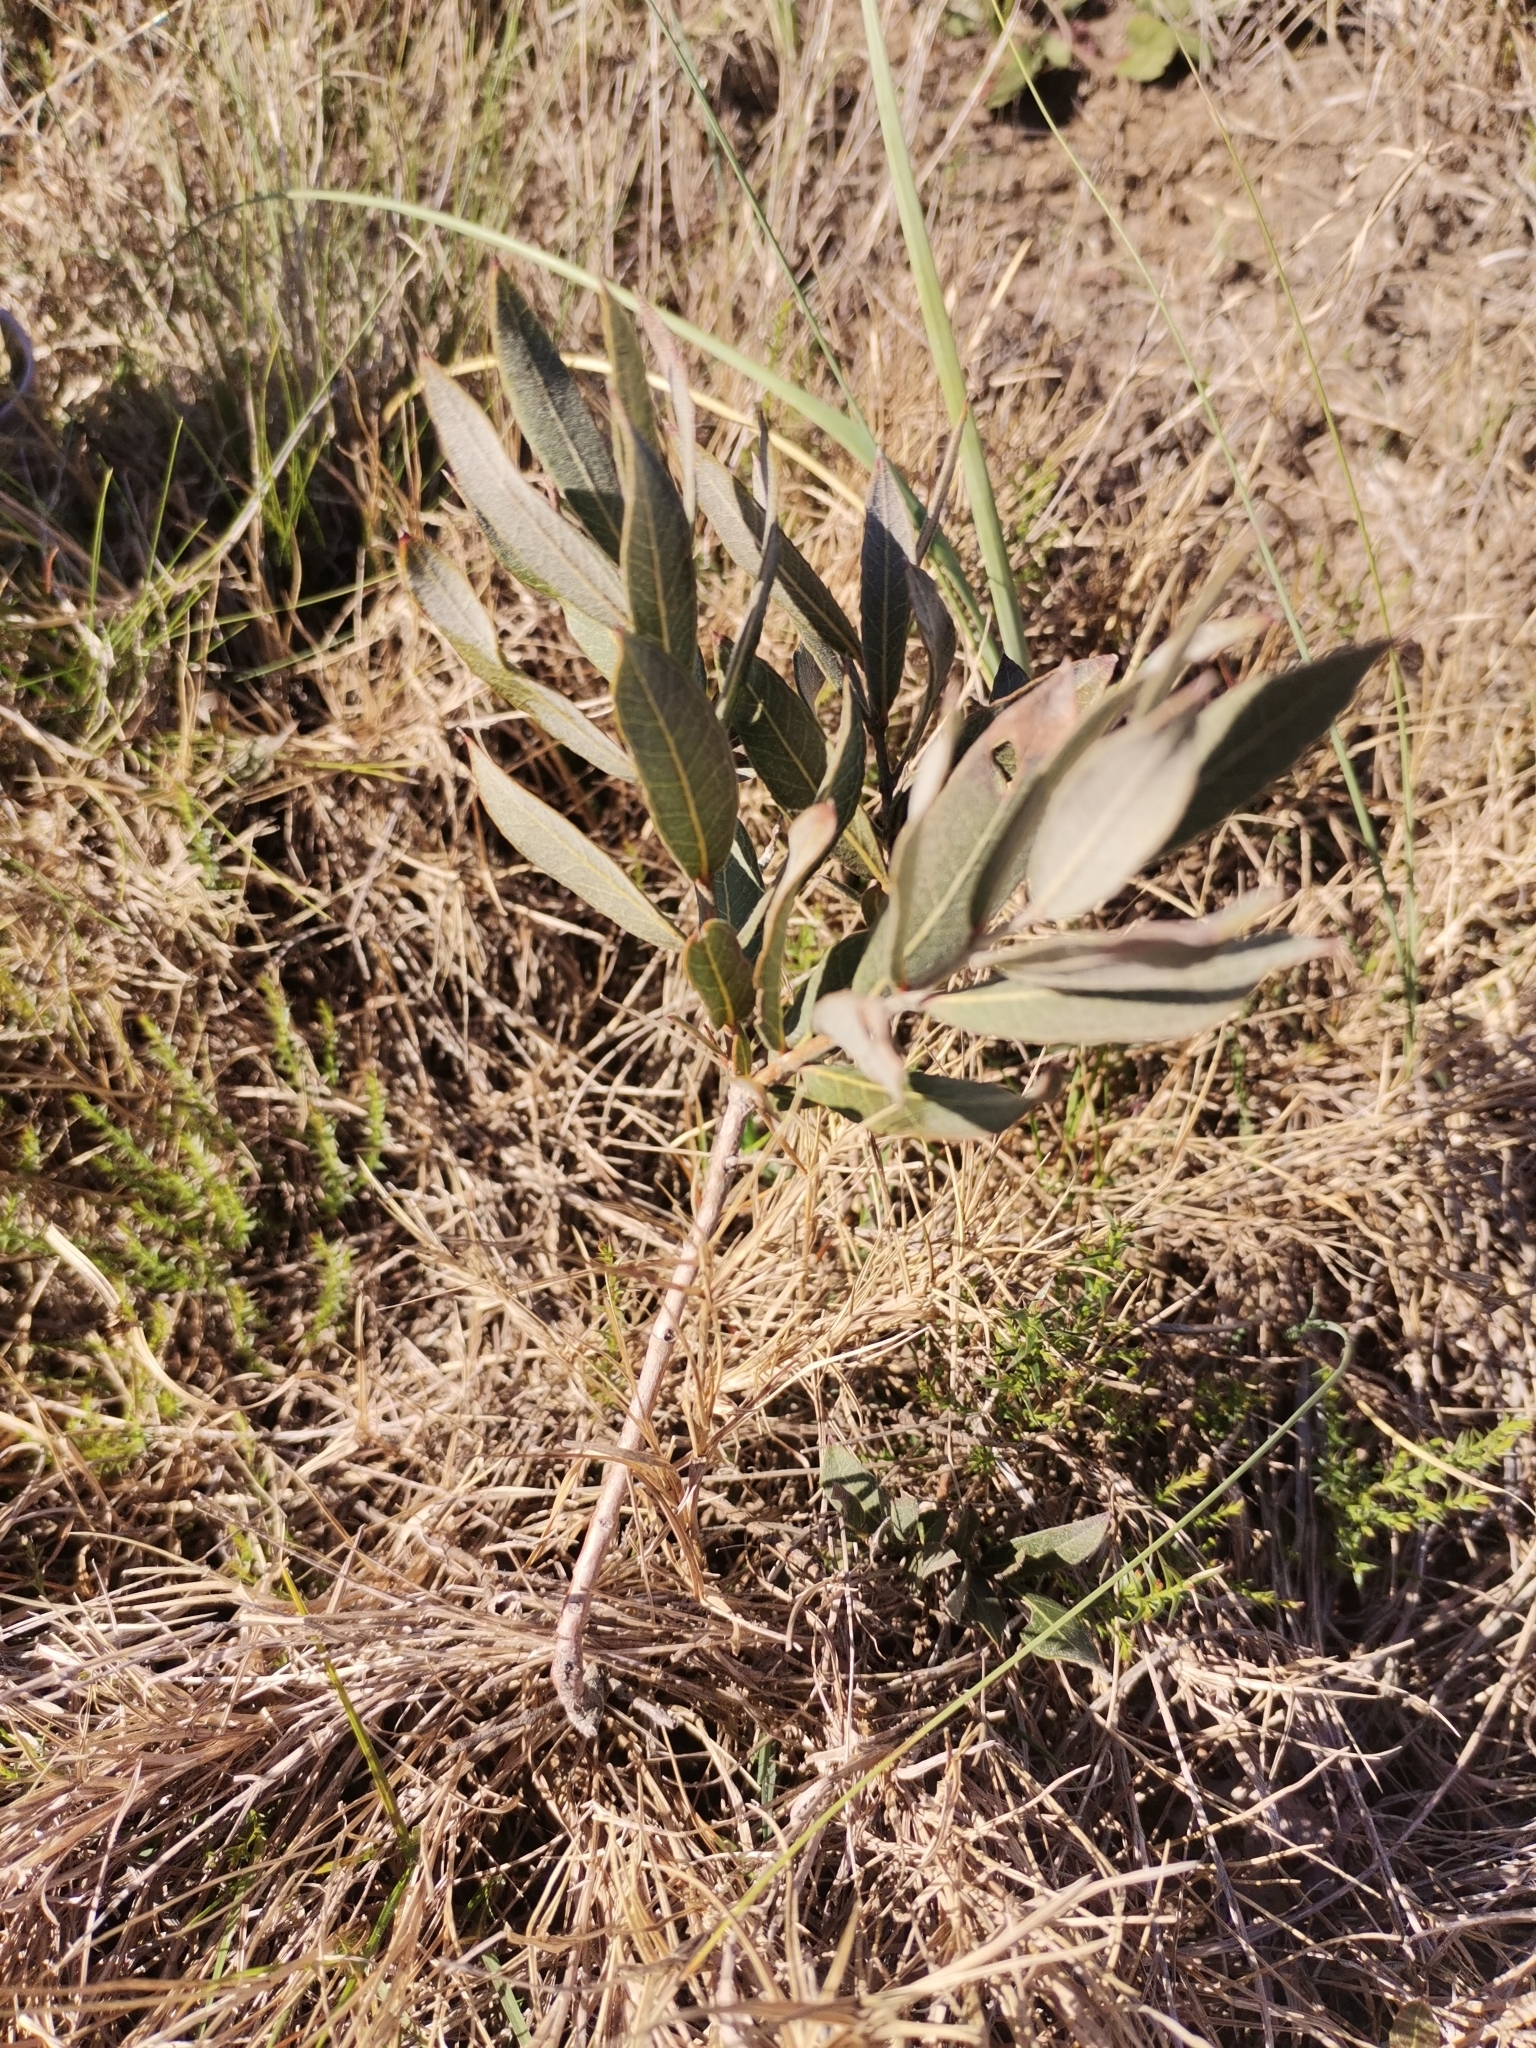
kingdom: Plantae
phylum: Tracheophyta
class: Magnoliopsida
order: Myrtales
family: Myrtaceae
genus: Psidium
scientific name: Psidium salutare
